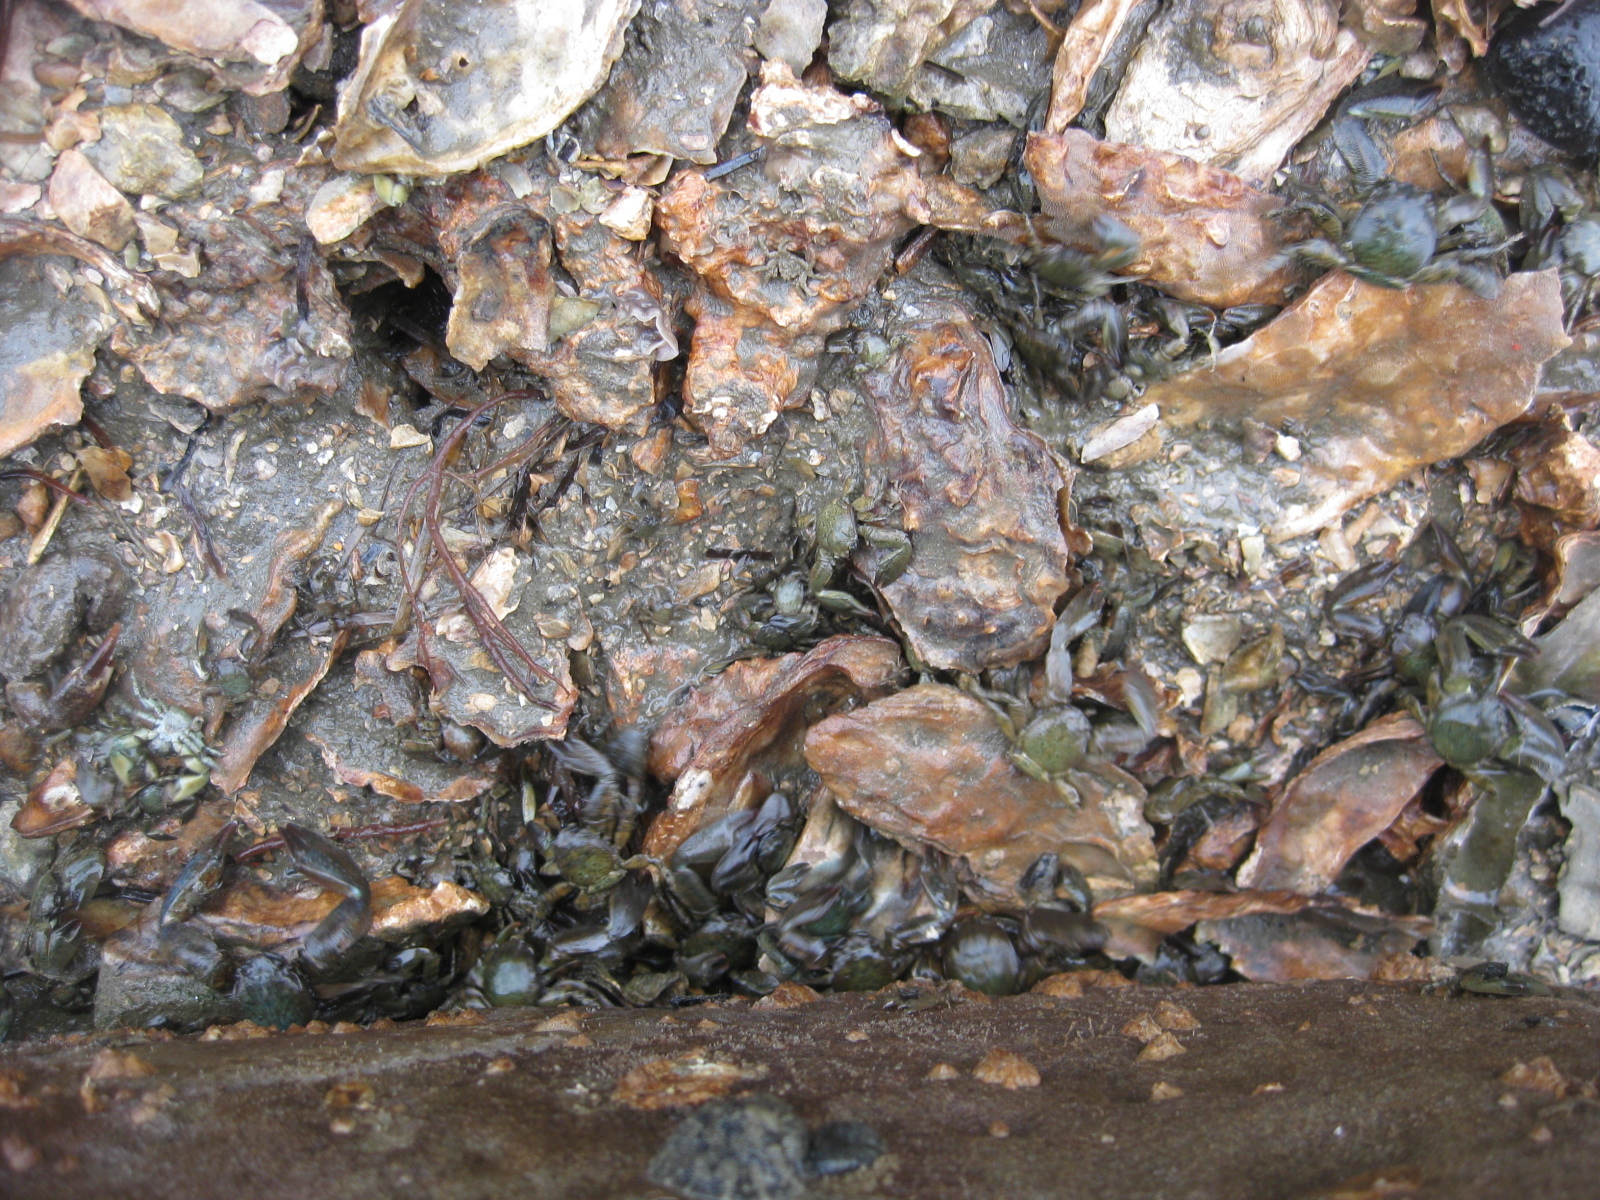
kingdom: Animalia
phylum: Arthropoda
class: Malacostraca
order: Decapoda
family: Porcellanidae
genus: Petrolisthes
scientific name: Petrolisthes elongatus
